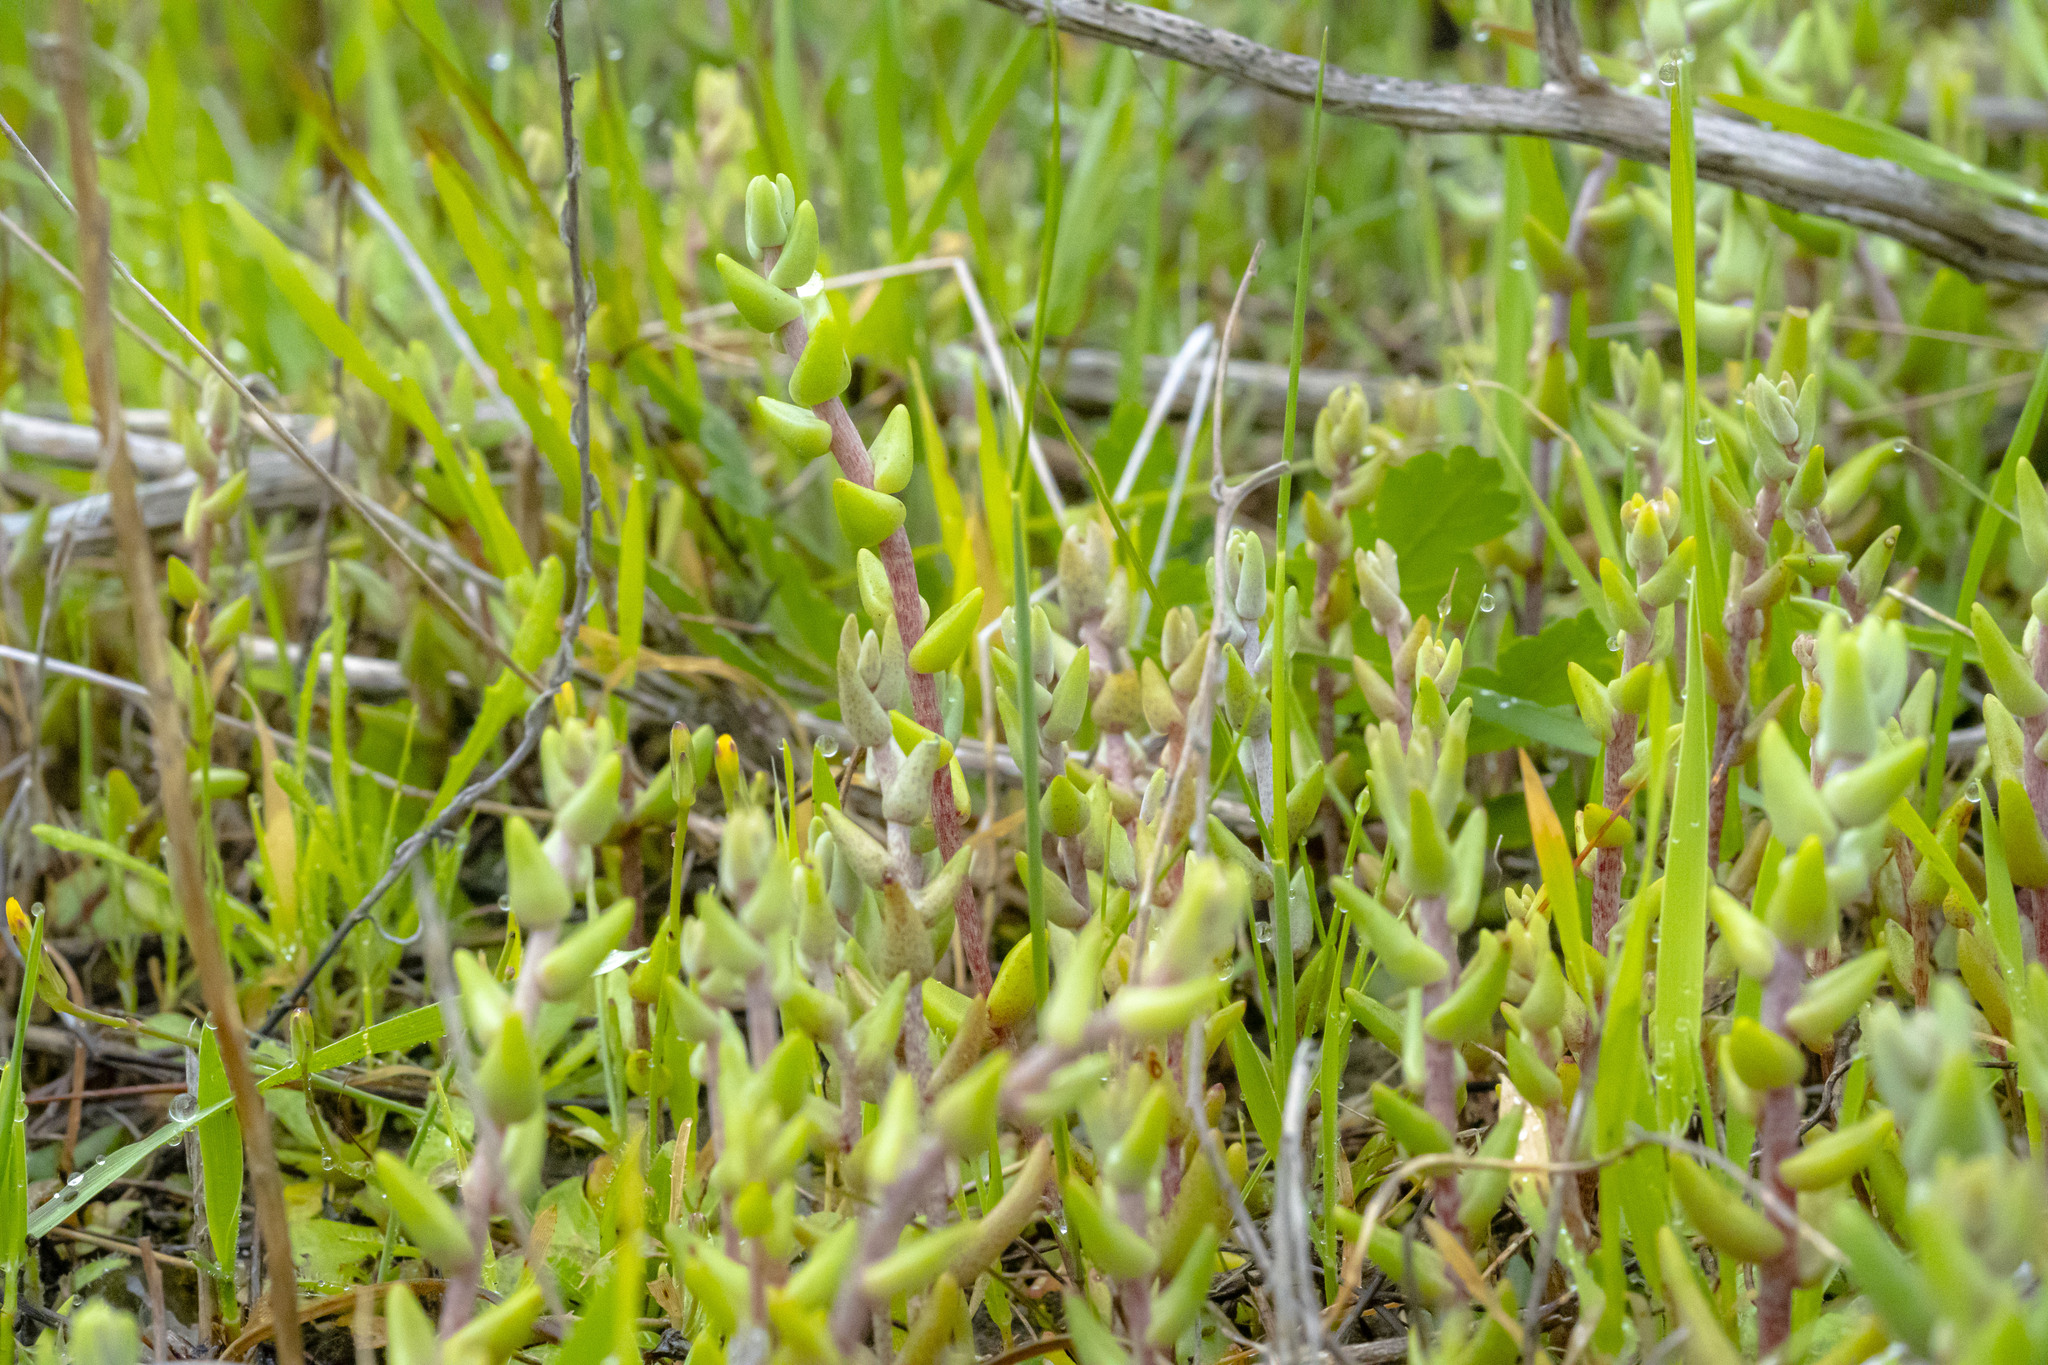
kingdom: Plantae
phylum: Tracheophyta
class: Magnoliopsida
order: Saxifragales
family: Crassulaceae
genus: Dudleya
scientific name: Dudleya variegata
